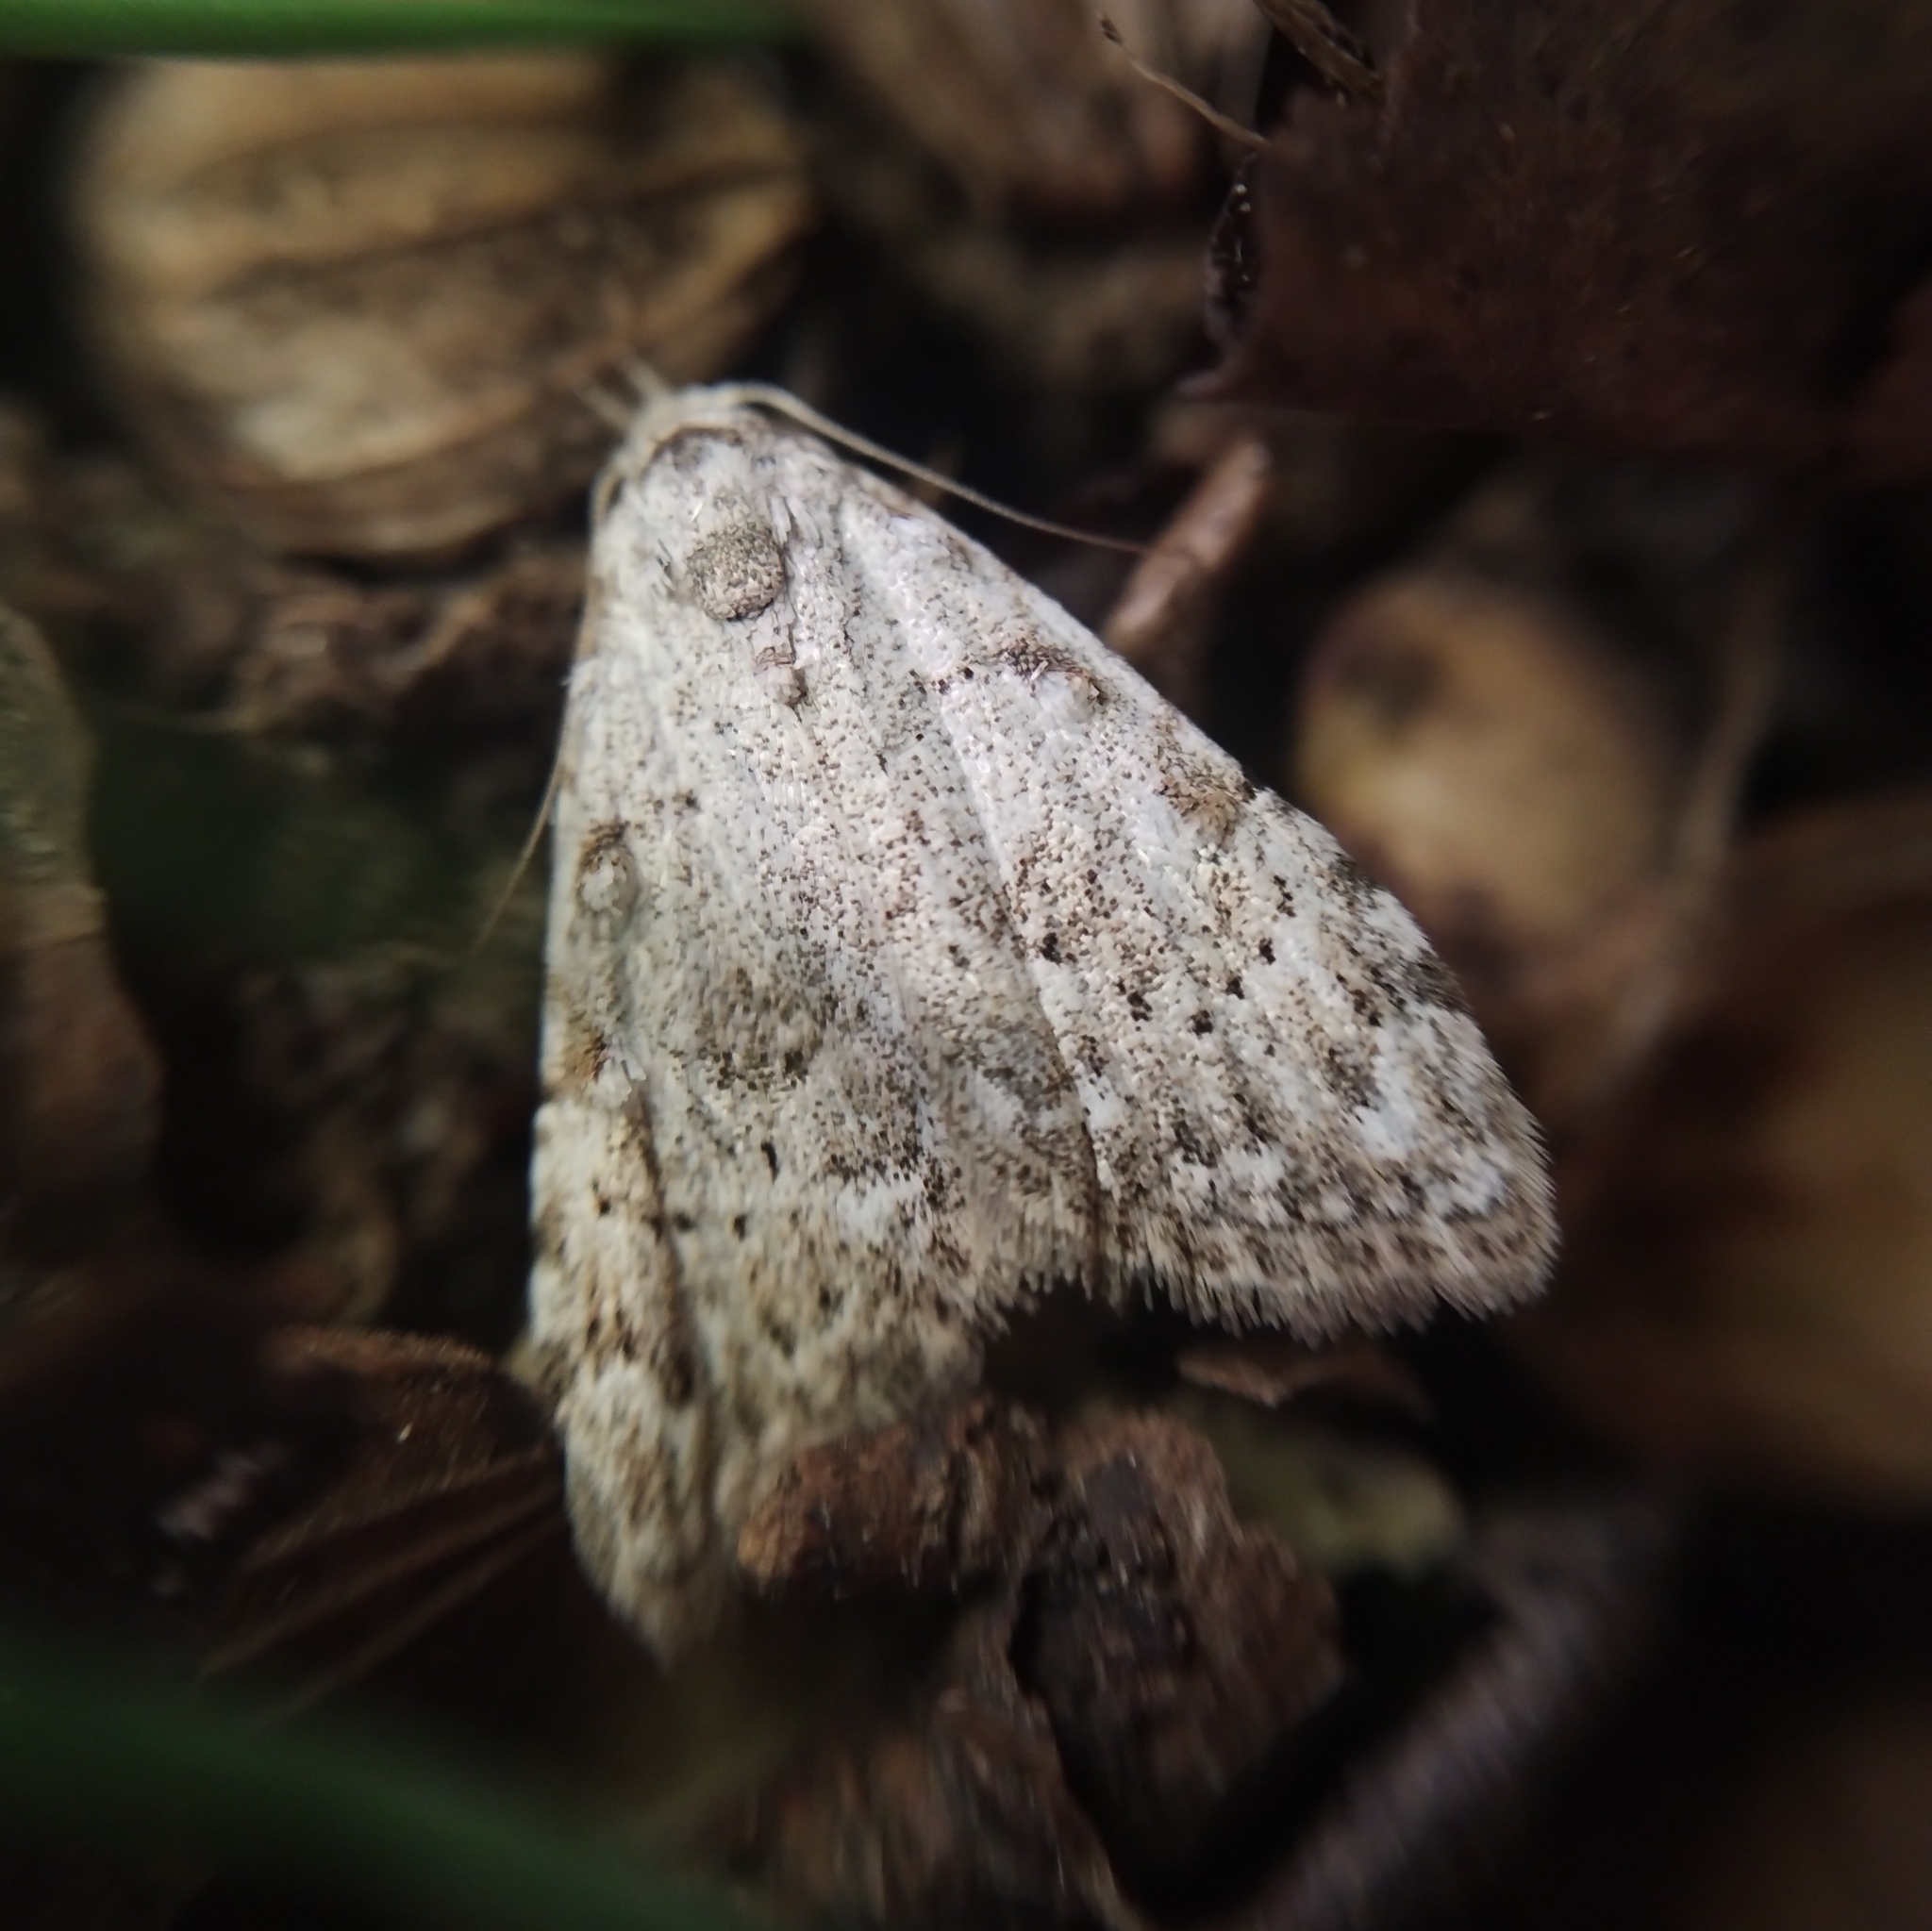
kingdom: Animalia
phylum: Arthropoda
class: Insecta
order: Lepidoptera
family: Nolidae
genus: Nola
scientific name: Nola confusalis
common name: Least black arches
